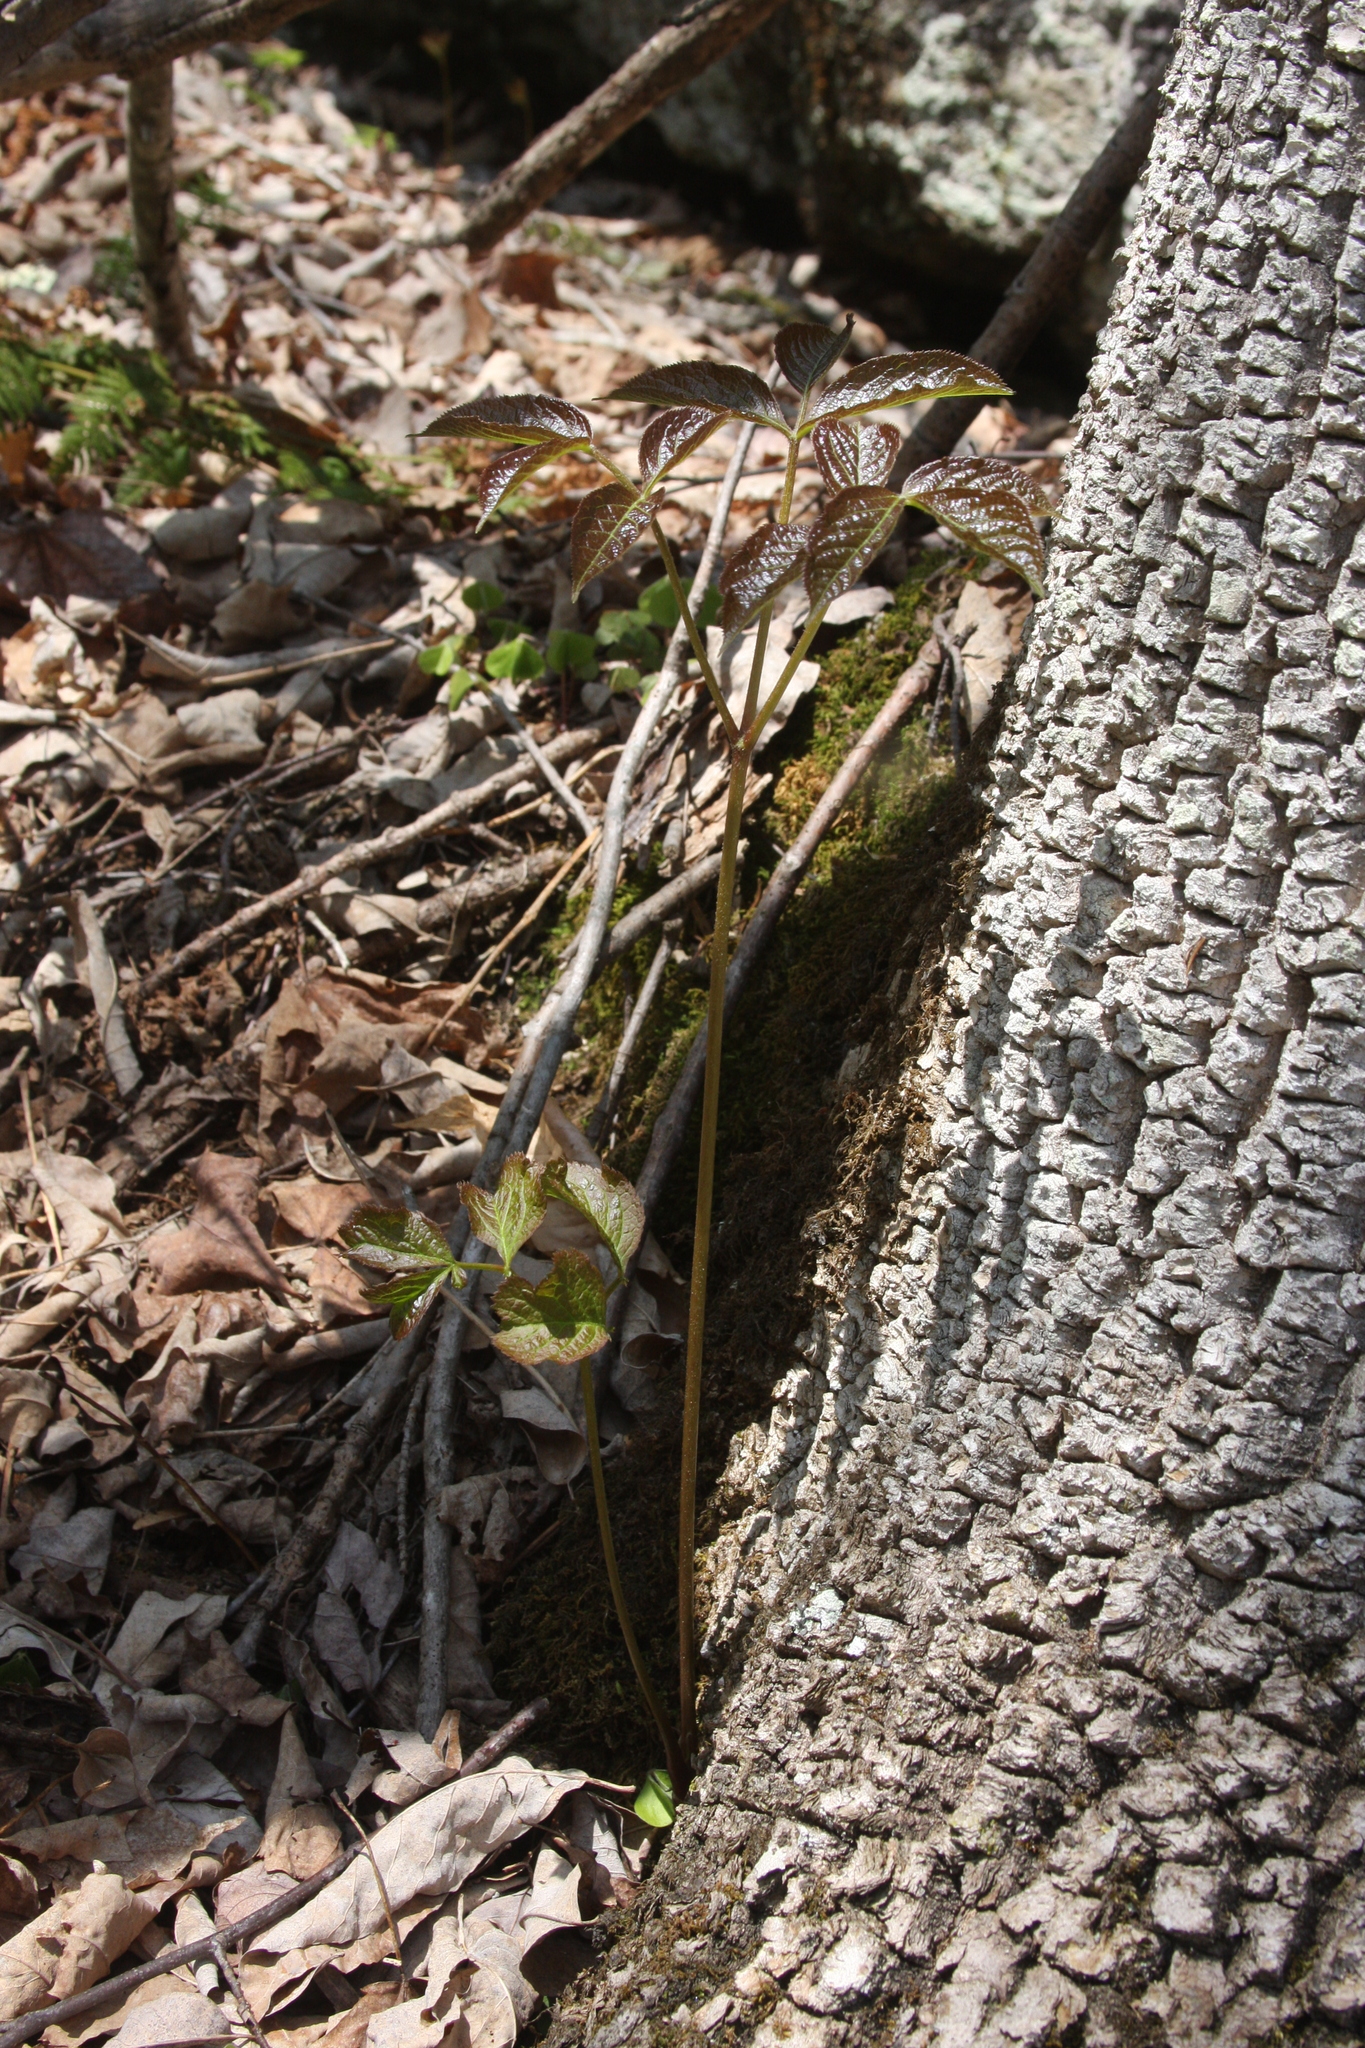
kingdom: Plantae
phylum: Tracheophyta
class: Magnoliopsida
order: Apiales
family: Araliaceae
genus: Aralia
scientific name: Aralia nudicaulis
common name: Wild sarsaparilla
